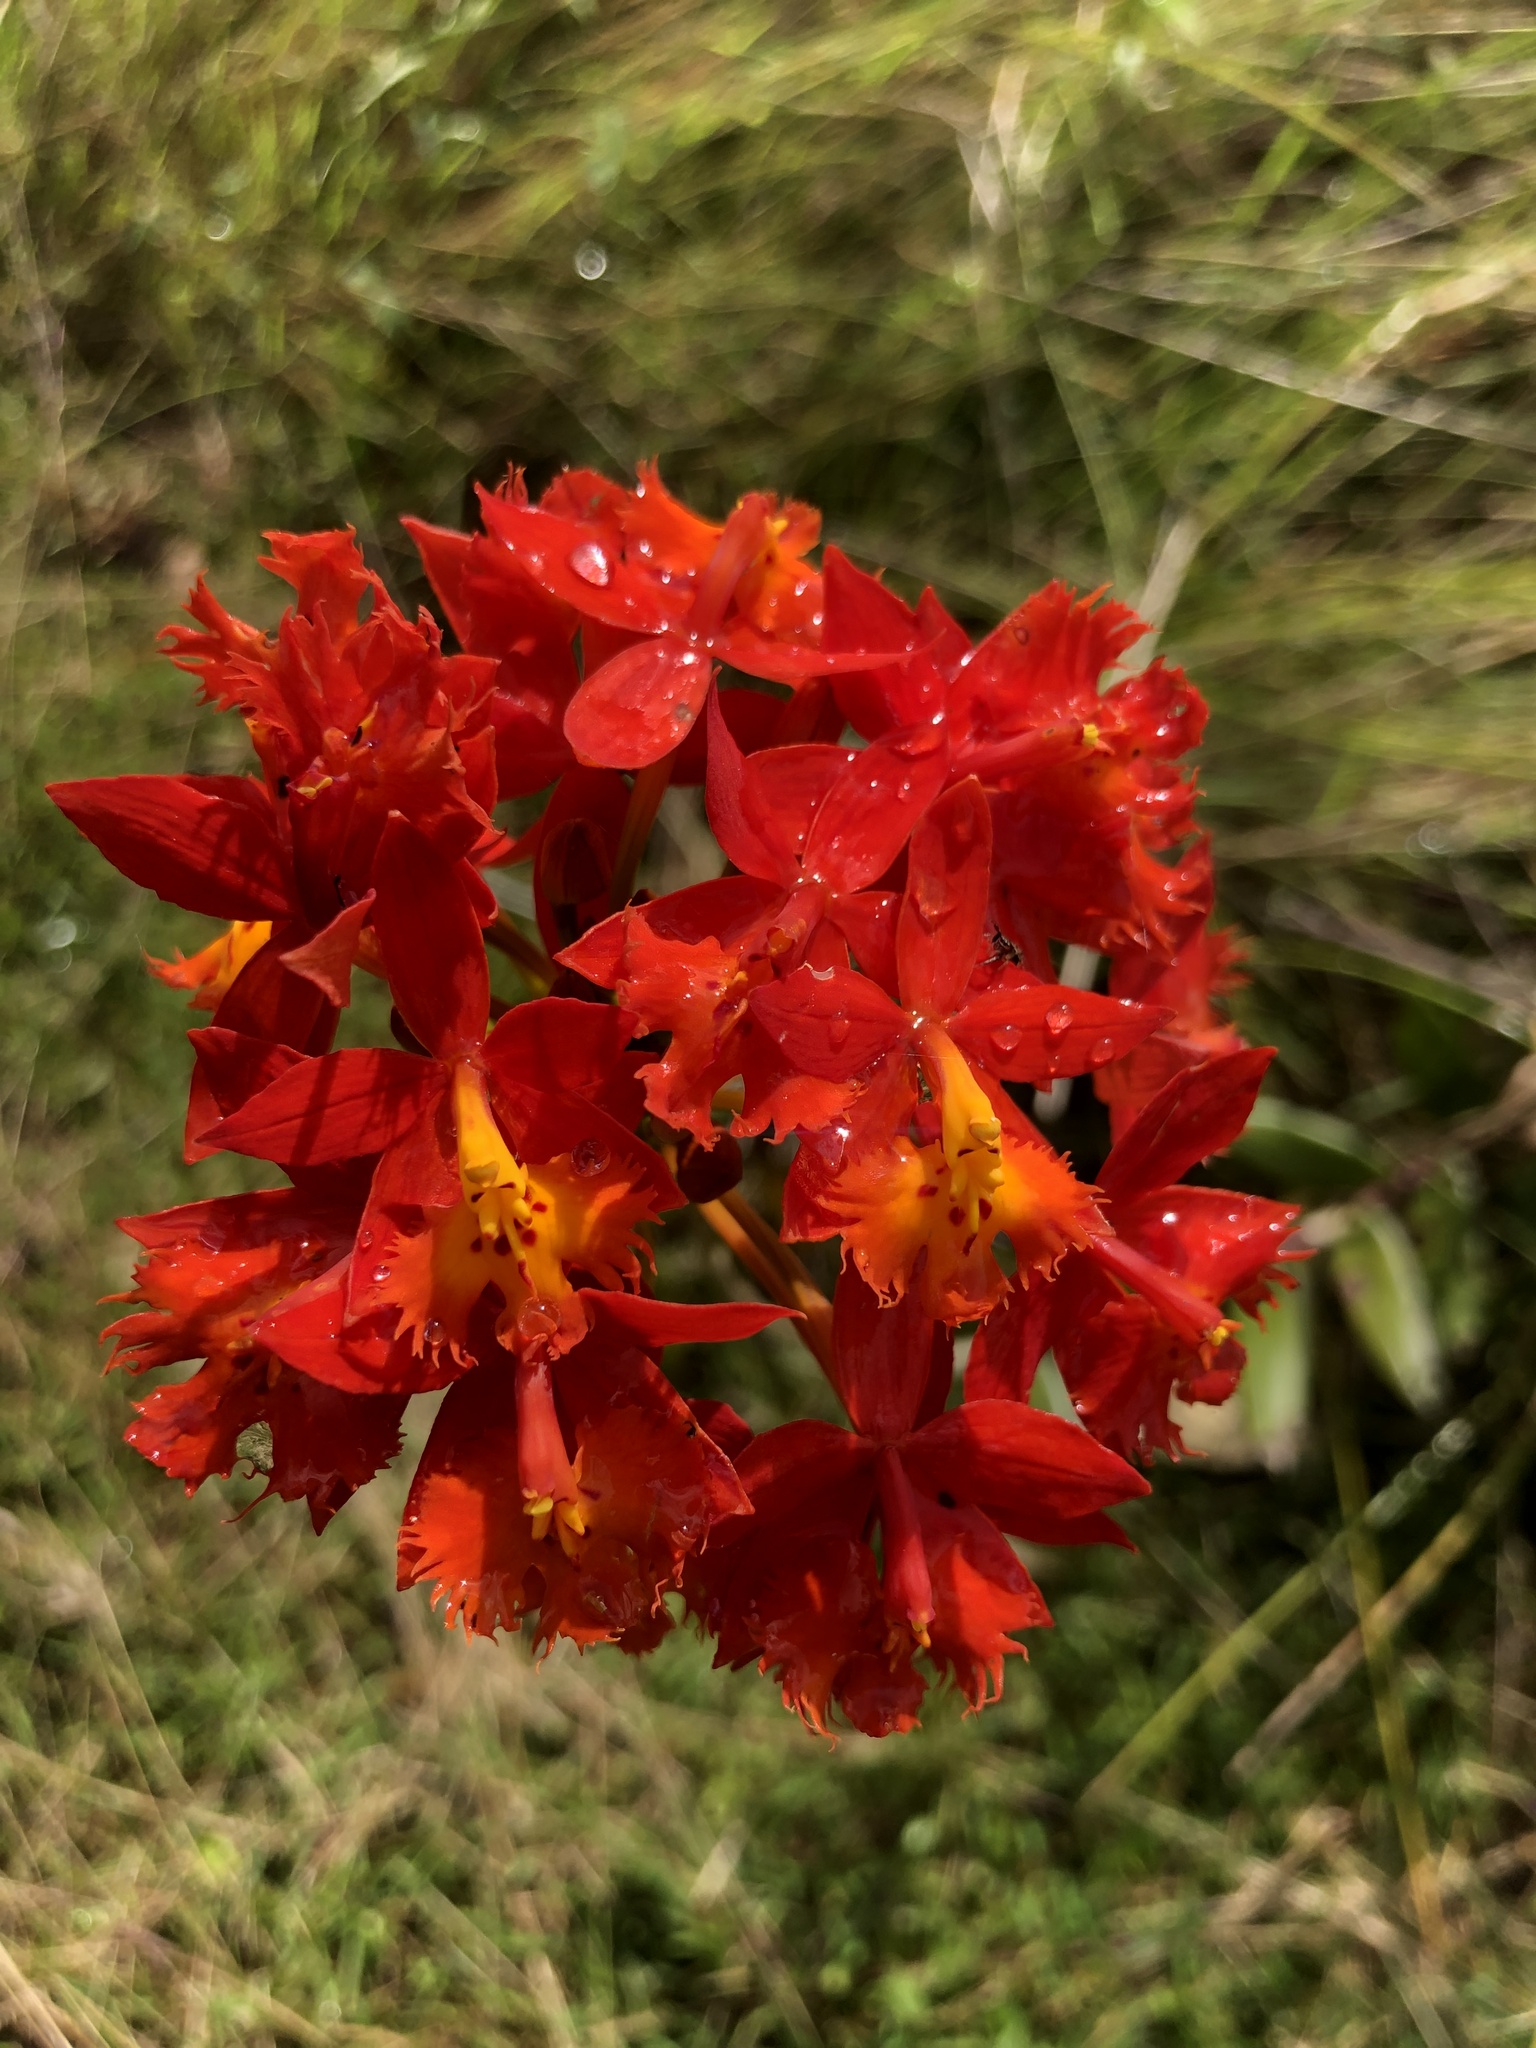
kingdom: Plantae
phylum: Tracheophyta
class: Liliopsida
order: Asparagales
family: Orchidaceae
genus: Epidendrum
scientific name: Epidendrum radicans
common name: Fire star orchid
